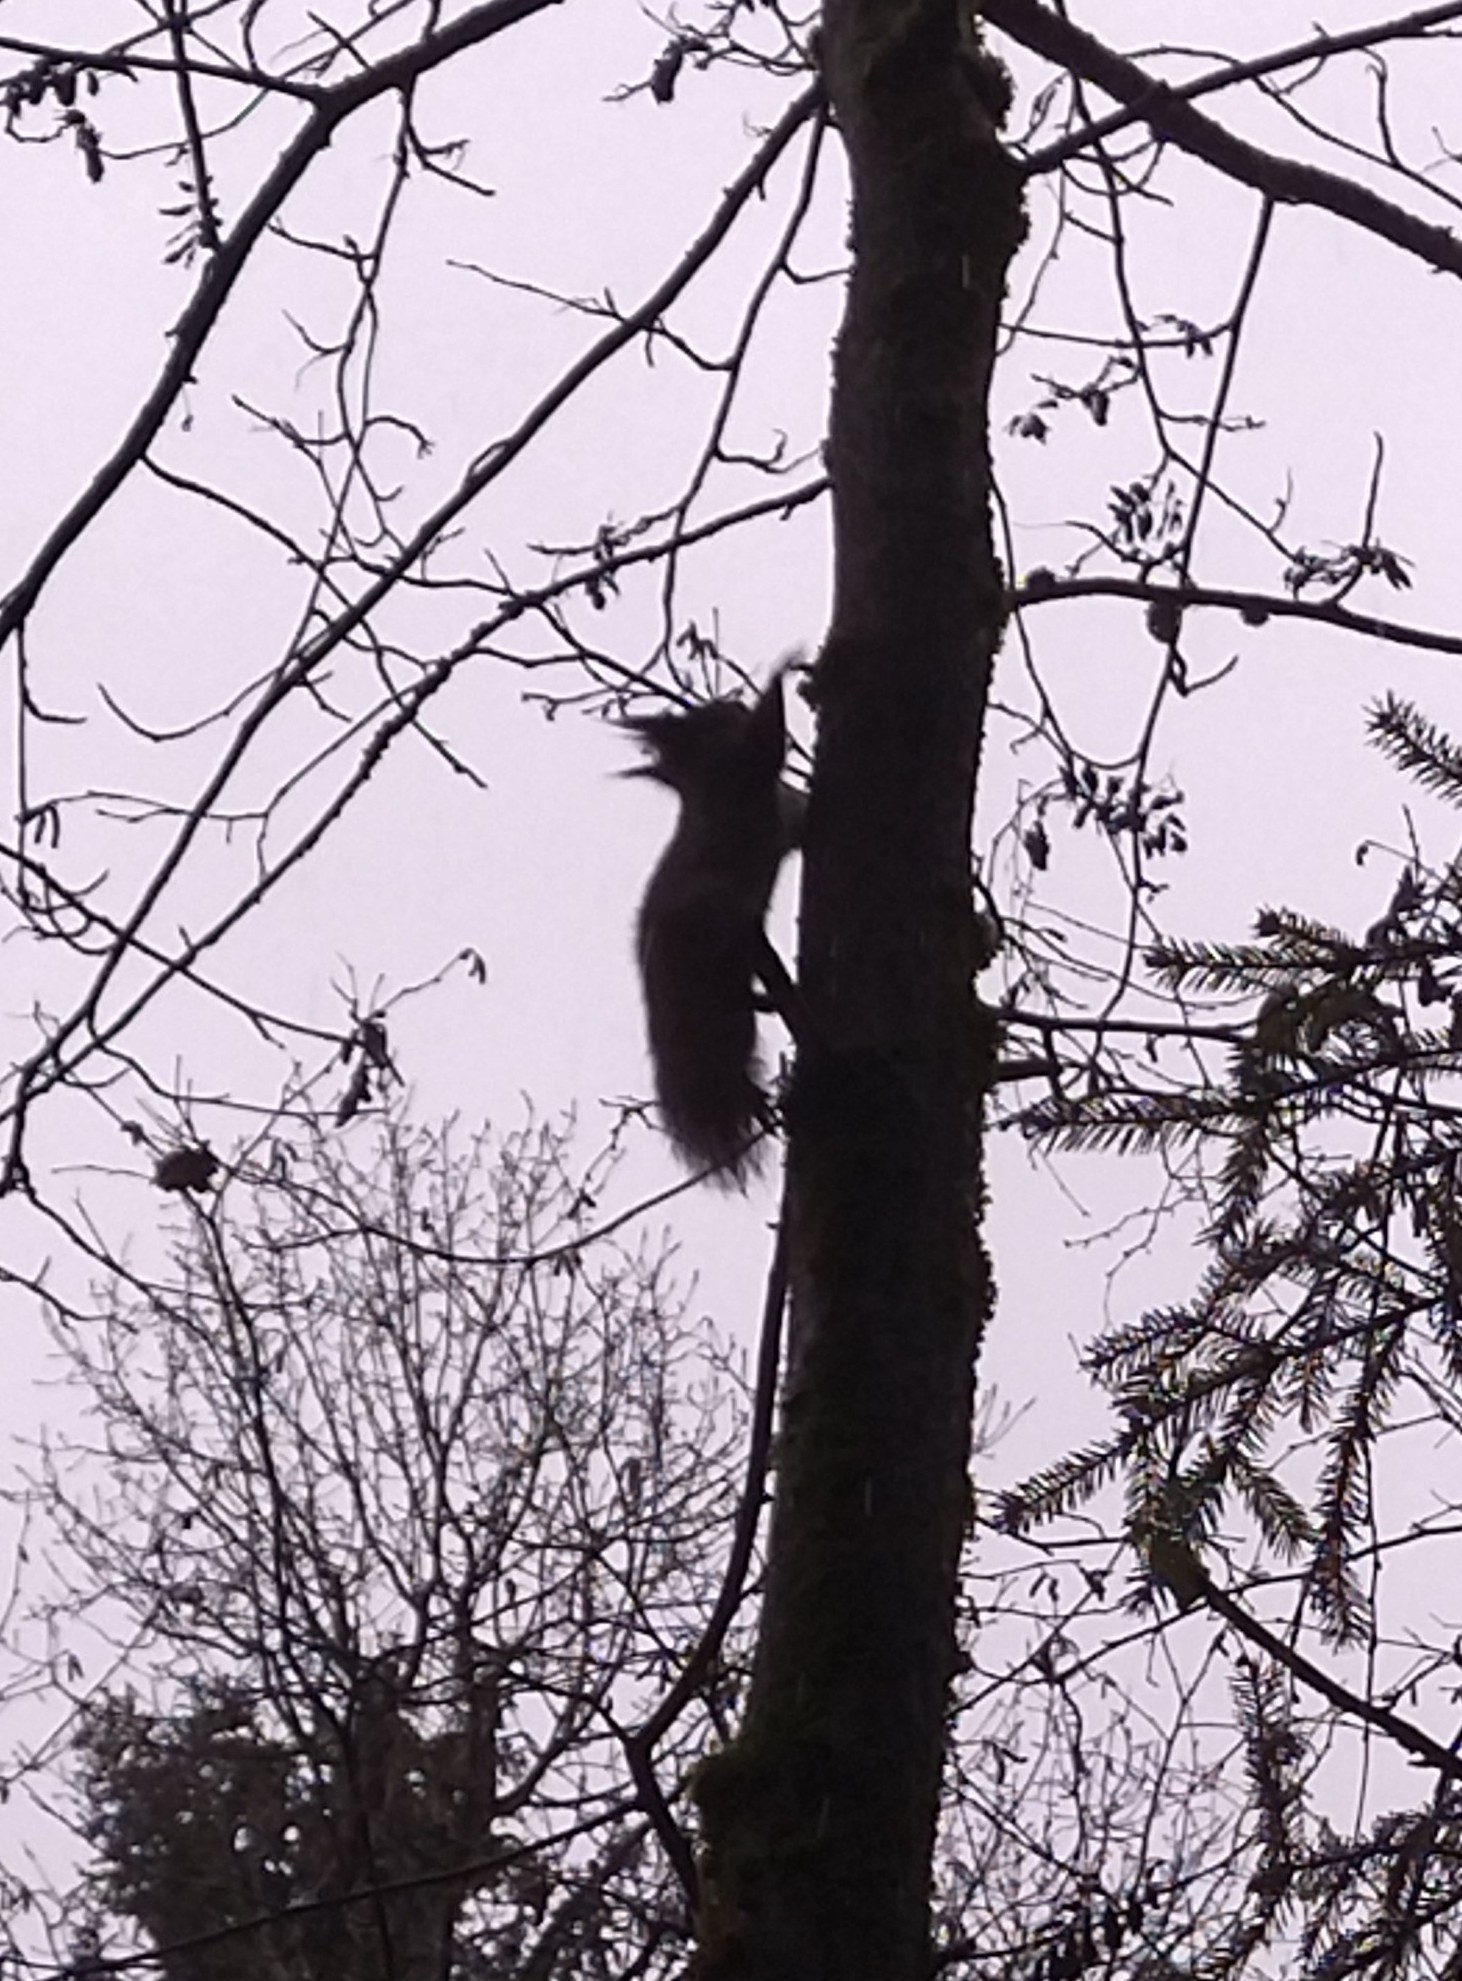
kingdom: Animalia
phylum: Chordata
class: Mammalia
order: Rodentia
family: Sciuridae
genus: Sciurus
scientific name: Sciurus vulgaris
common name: Eurasian red squirrel
